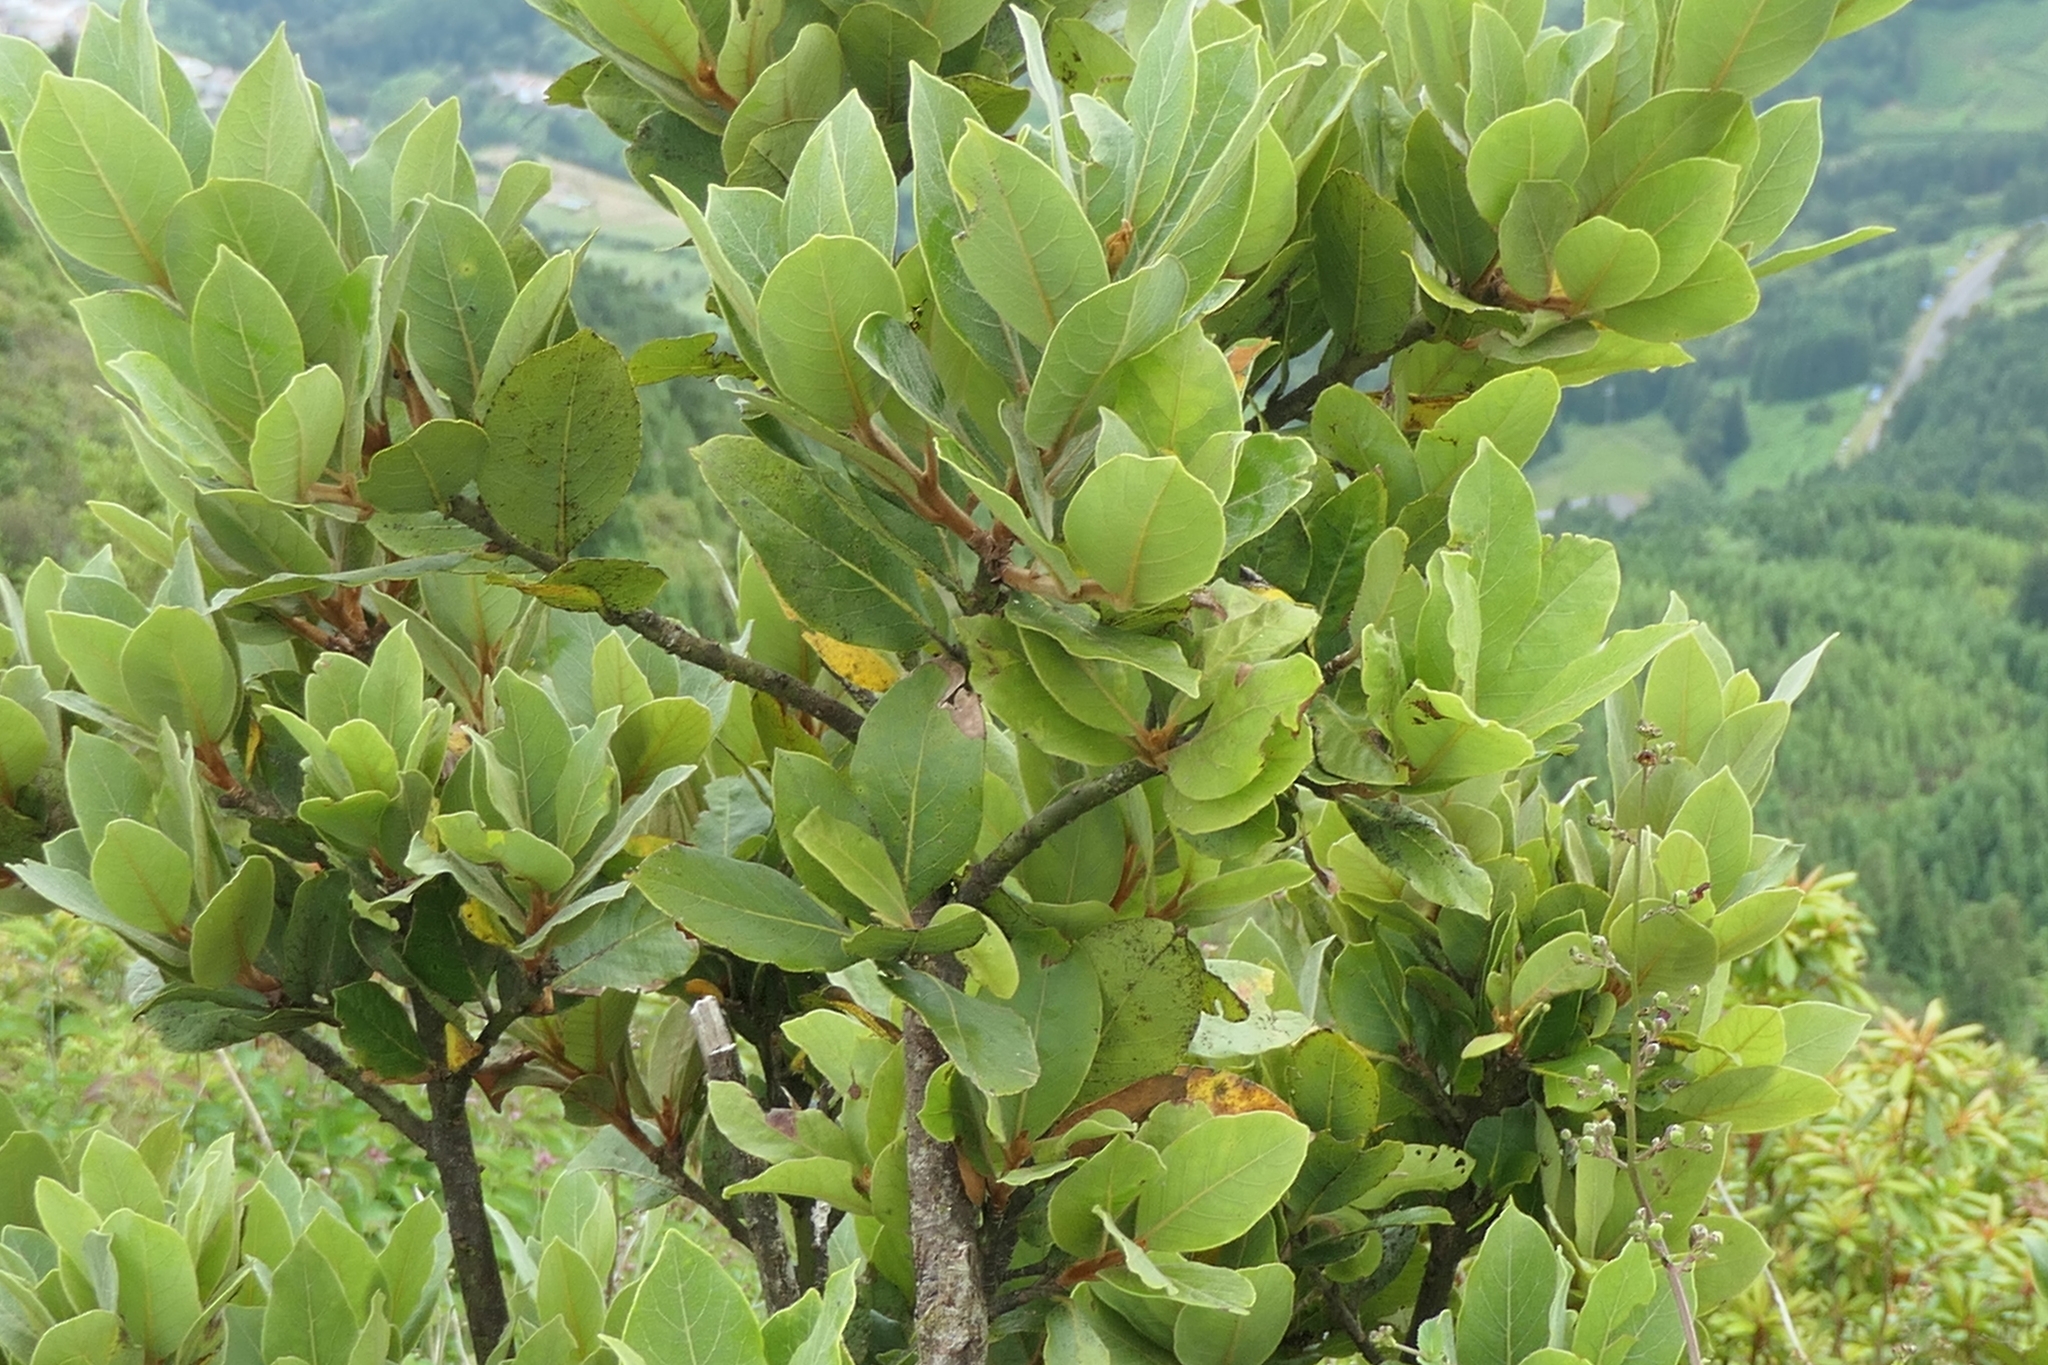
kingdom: Plantae
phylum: Tracheophyta
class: Magnoliopsida
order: Laurales
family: Lauraceae
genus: Laurus
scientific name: Laurus azorica
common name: Macaronesian laurel
